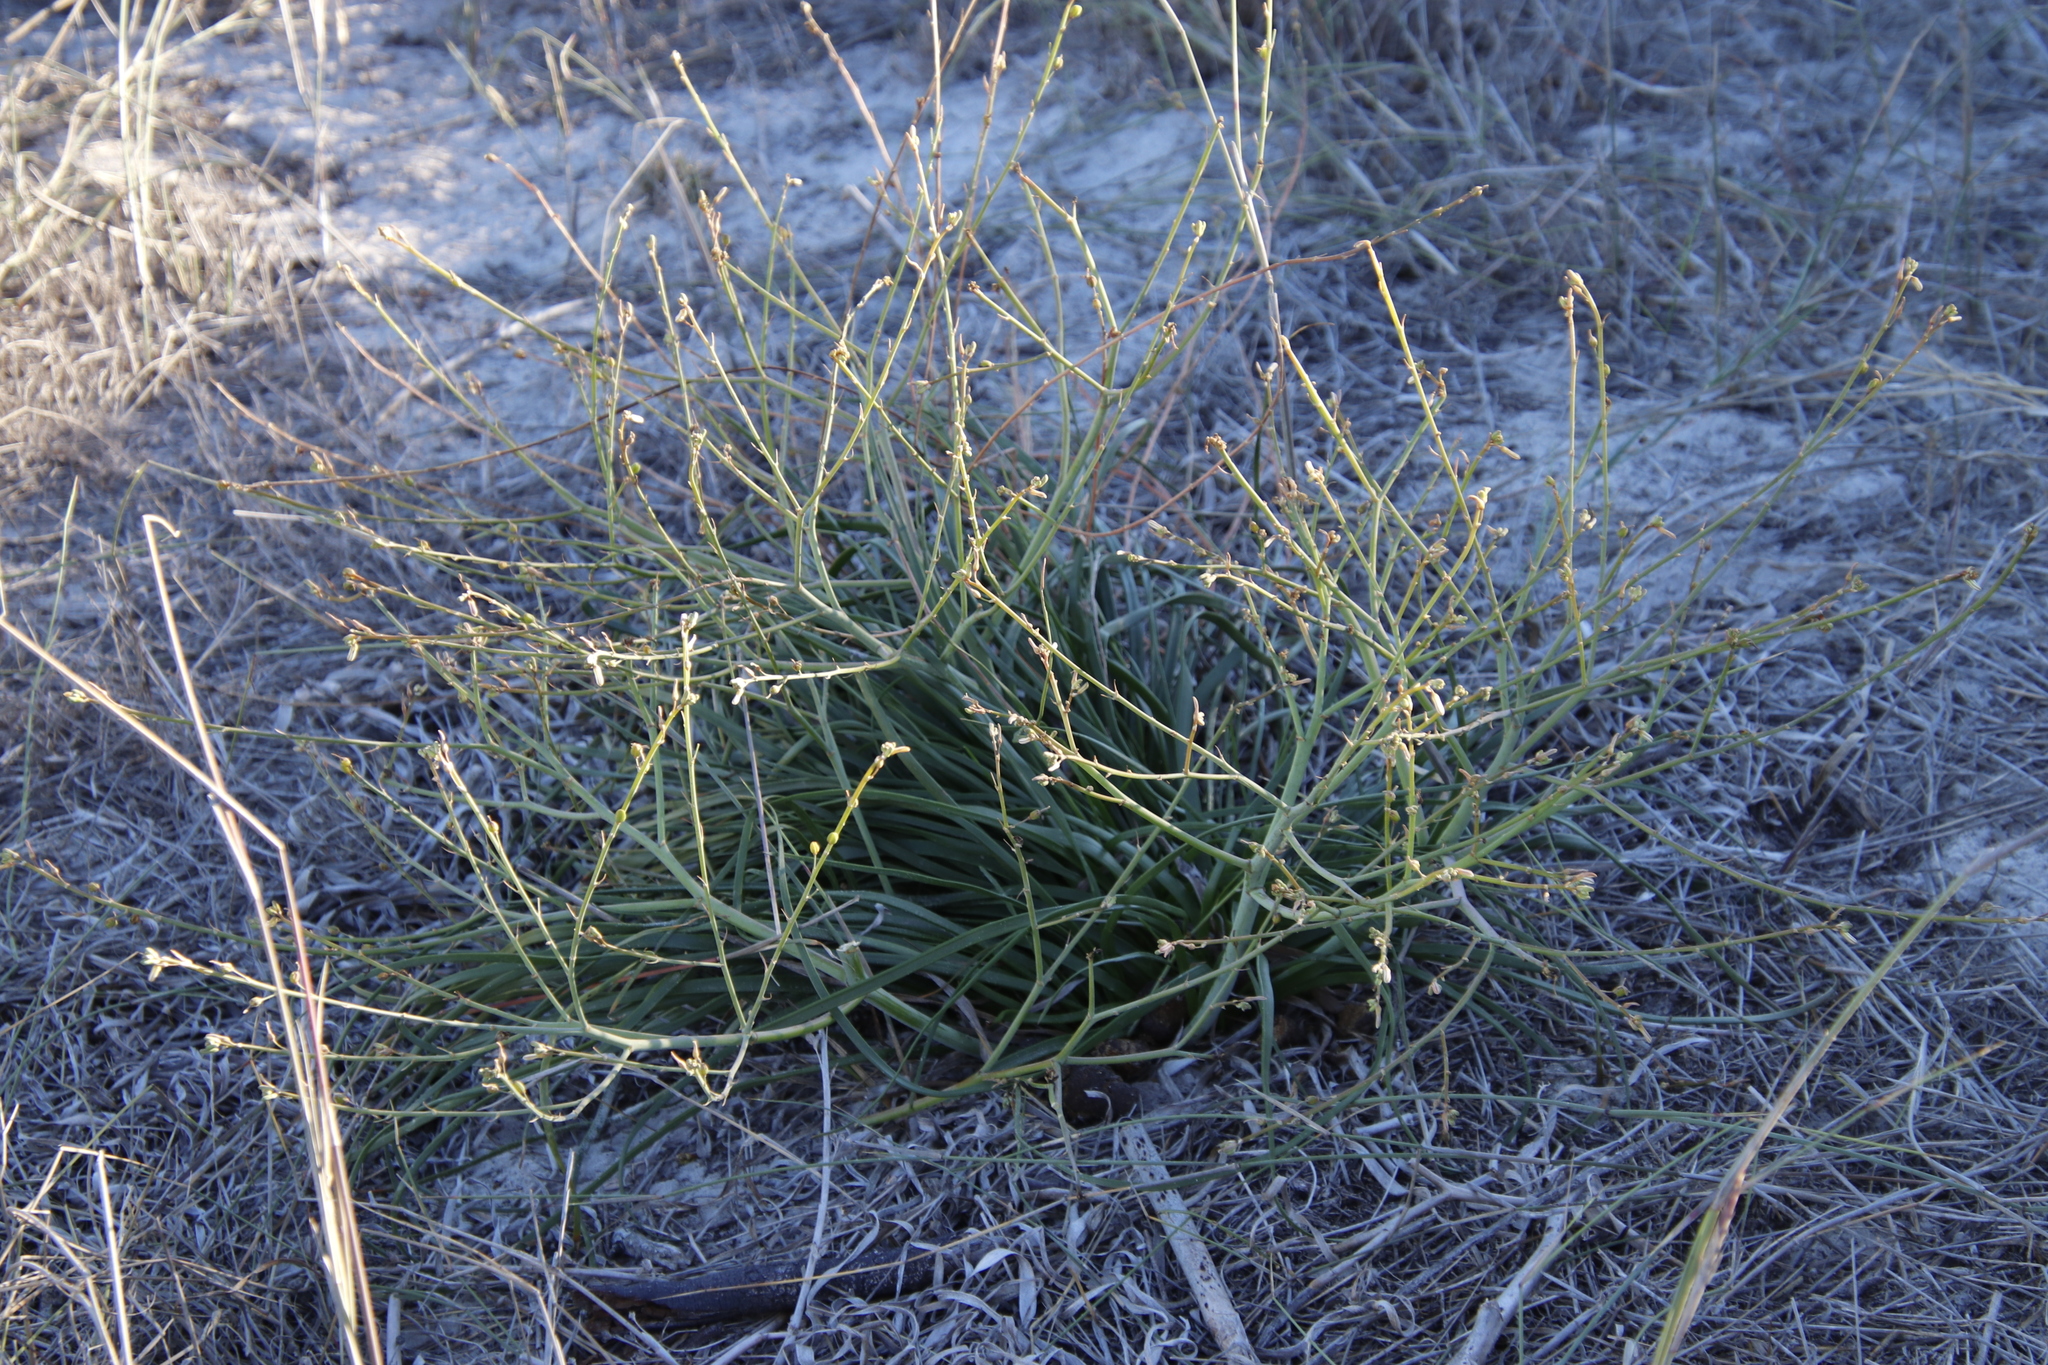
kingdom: Plantae
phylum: Tracheophyta
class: Liliopsida
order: Asparagales
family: Asphodelaceae
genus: Trachyandra
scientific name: Trachyandra divaricata
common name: Dune onionweed
